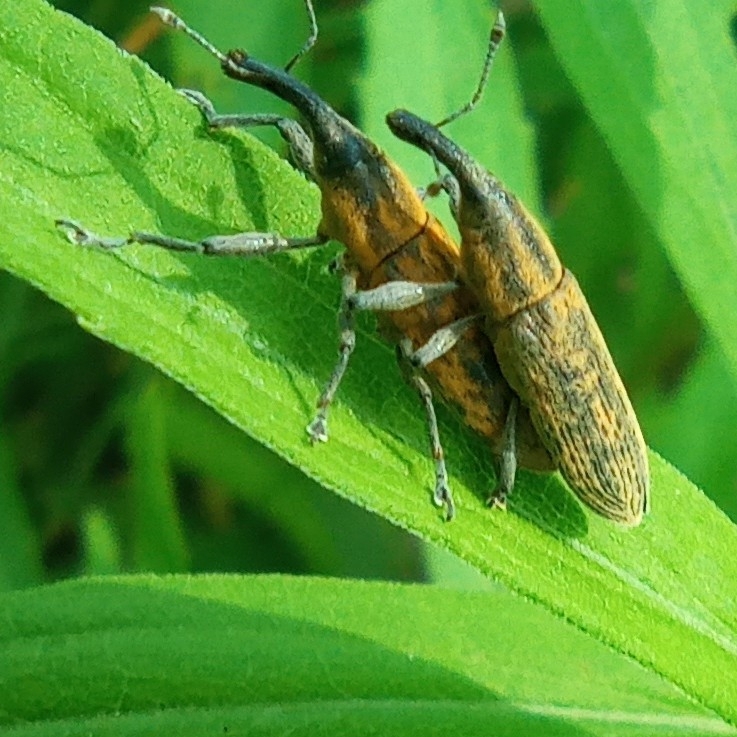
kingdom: Animalia
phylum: Arthropoda
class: Insecta
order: Coleoptera
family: Curculionidae
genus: Lixus
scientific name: Lixus fasciculatus
